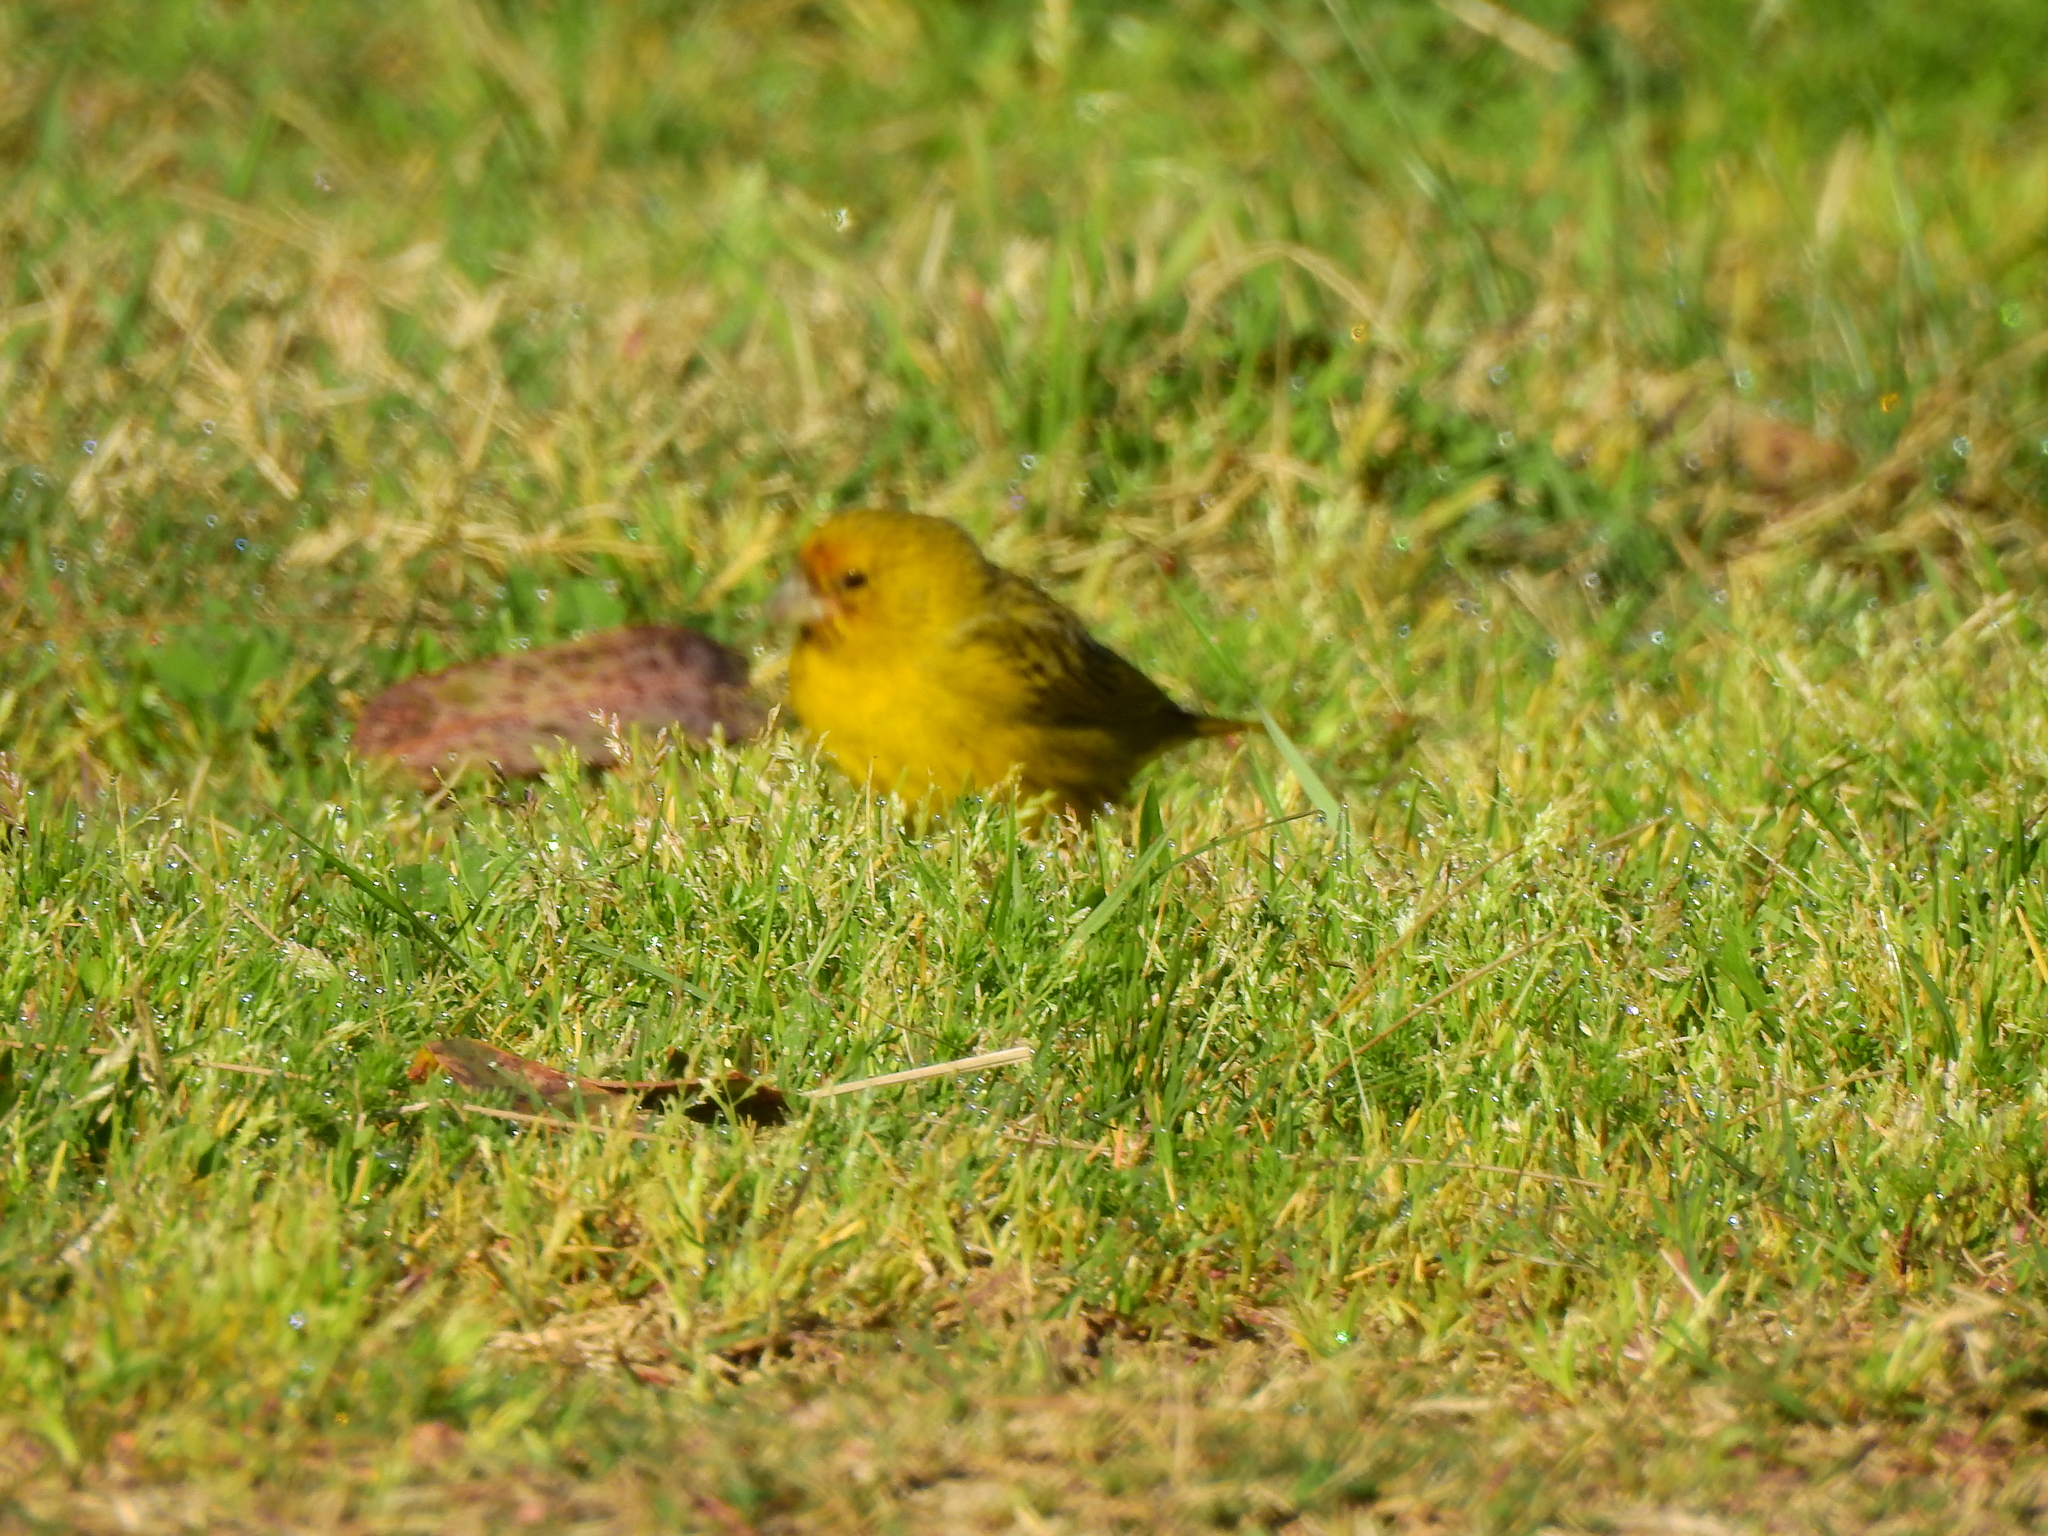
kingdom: Animalia
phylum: Chordata
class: Aves
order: Passeriformes
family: Thraupidae
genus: Sicalis
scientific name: Sicalis flaveola
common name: Saffron finch
